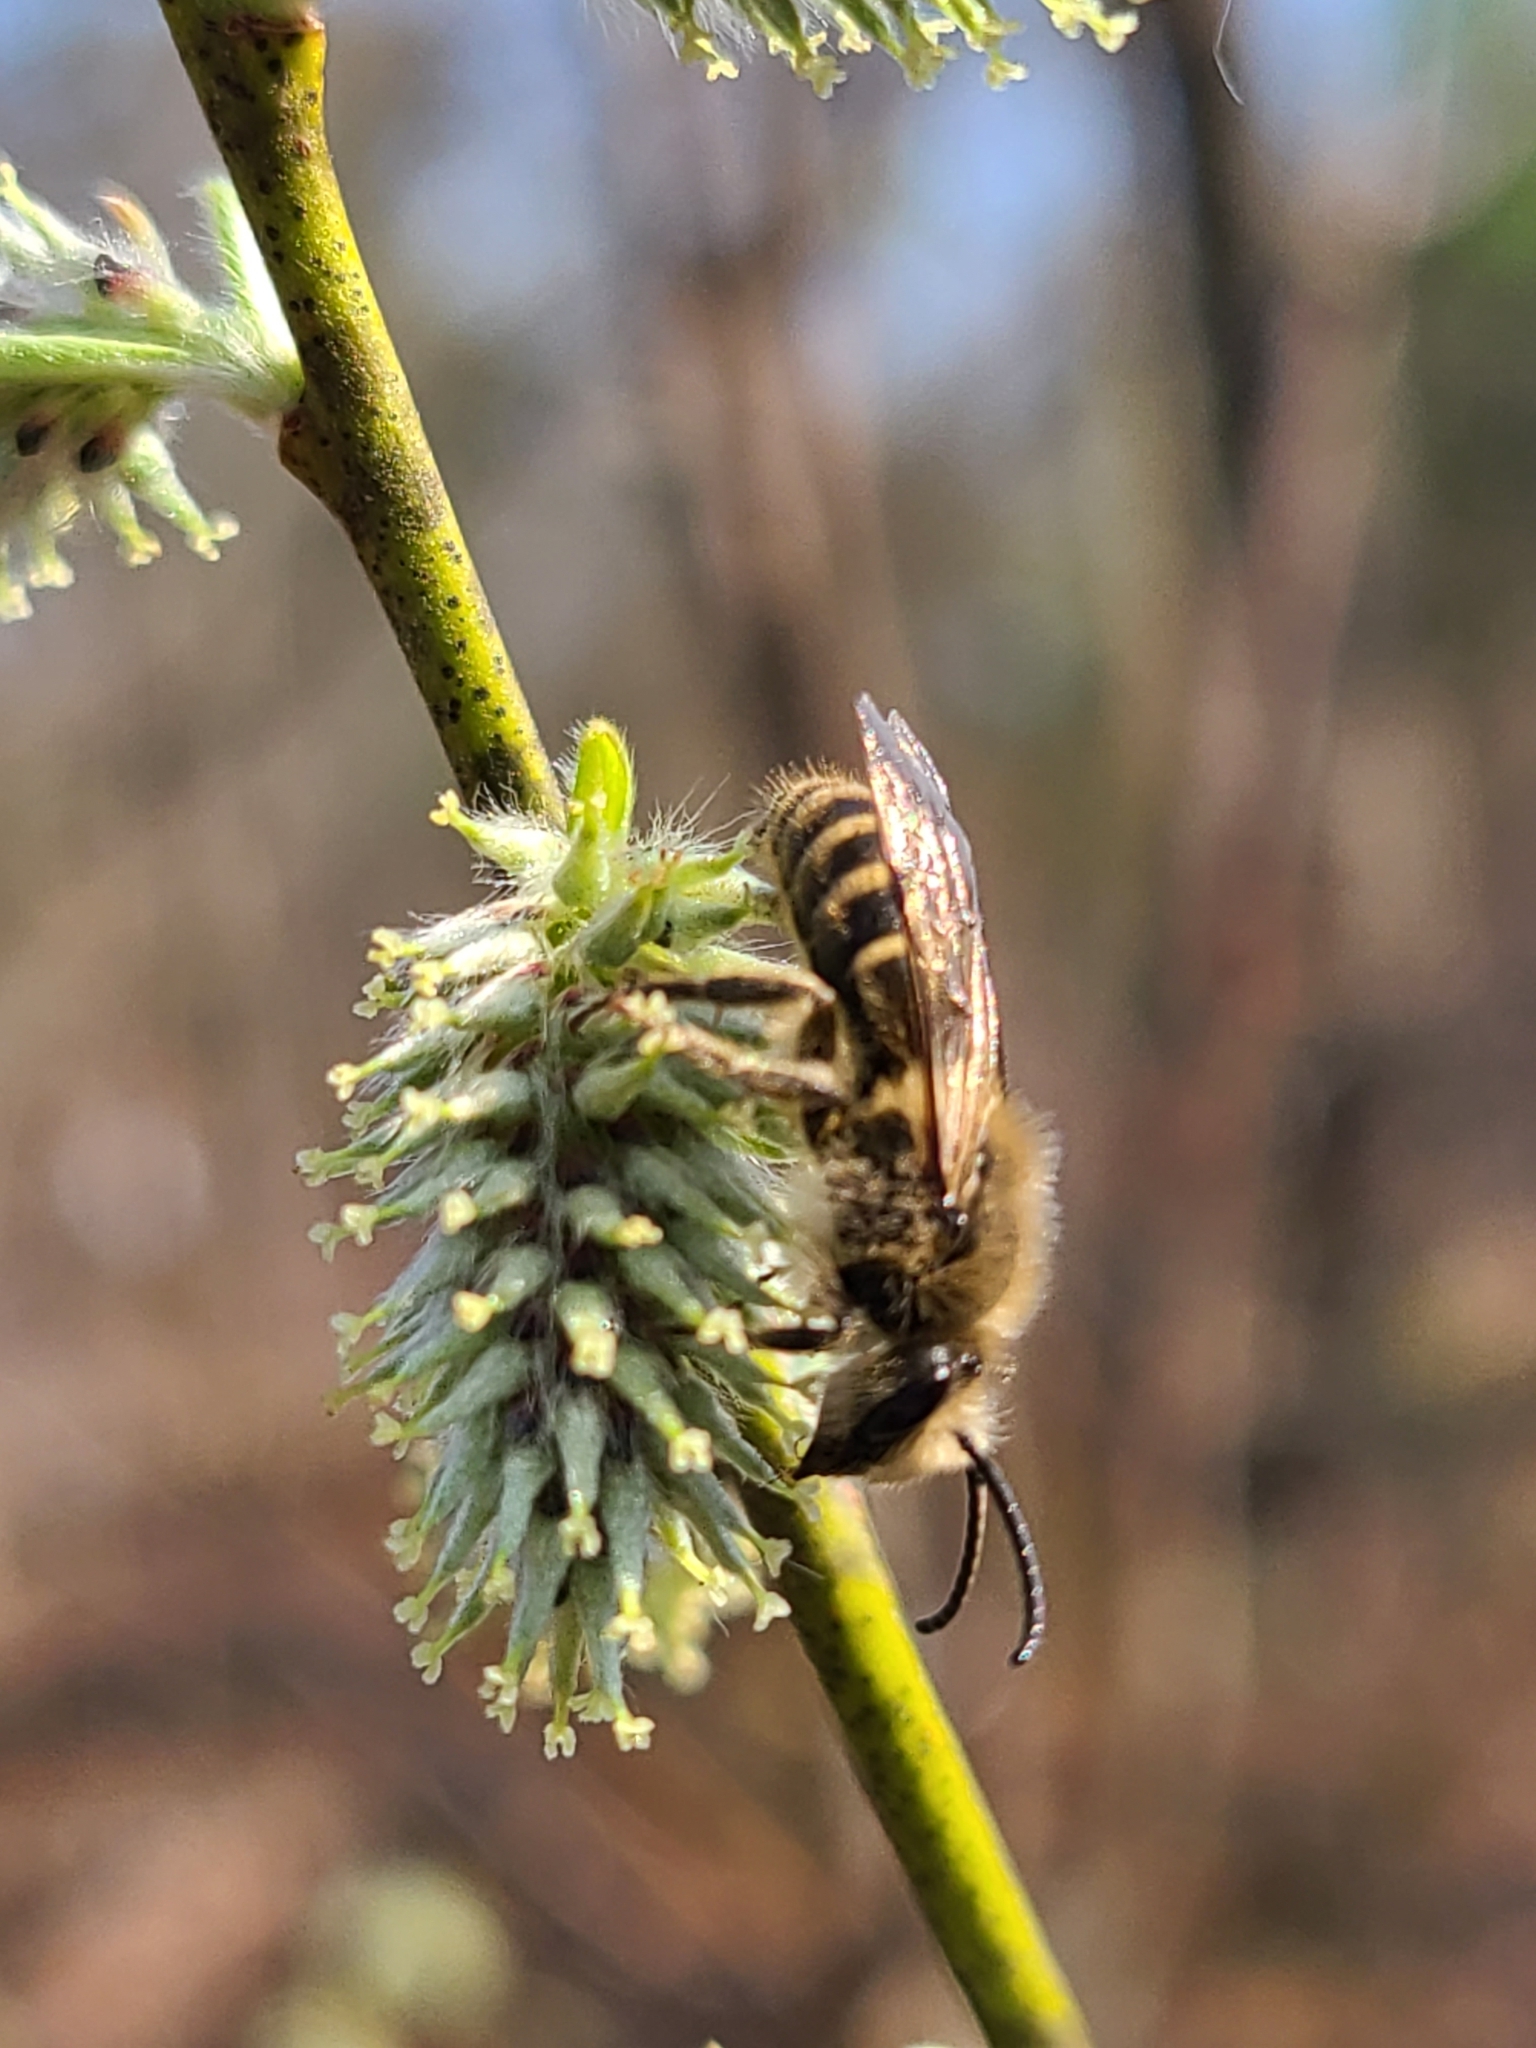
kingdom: Animalia
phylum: Arthropoda
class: Insecta
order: Hymenoptera
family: Colletidae
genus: Colletes
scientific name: Colletes inaequalis
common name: Unequal cellophane bee
